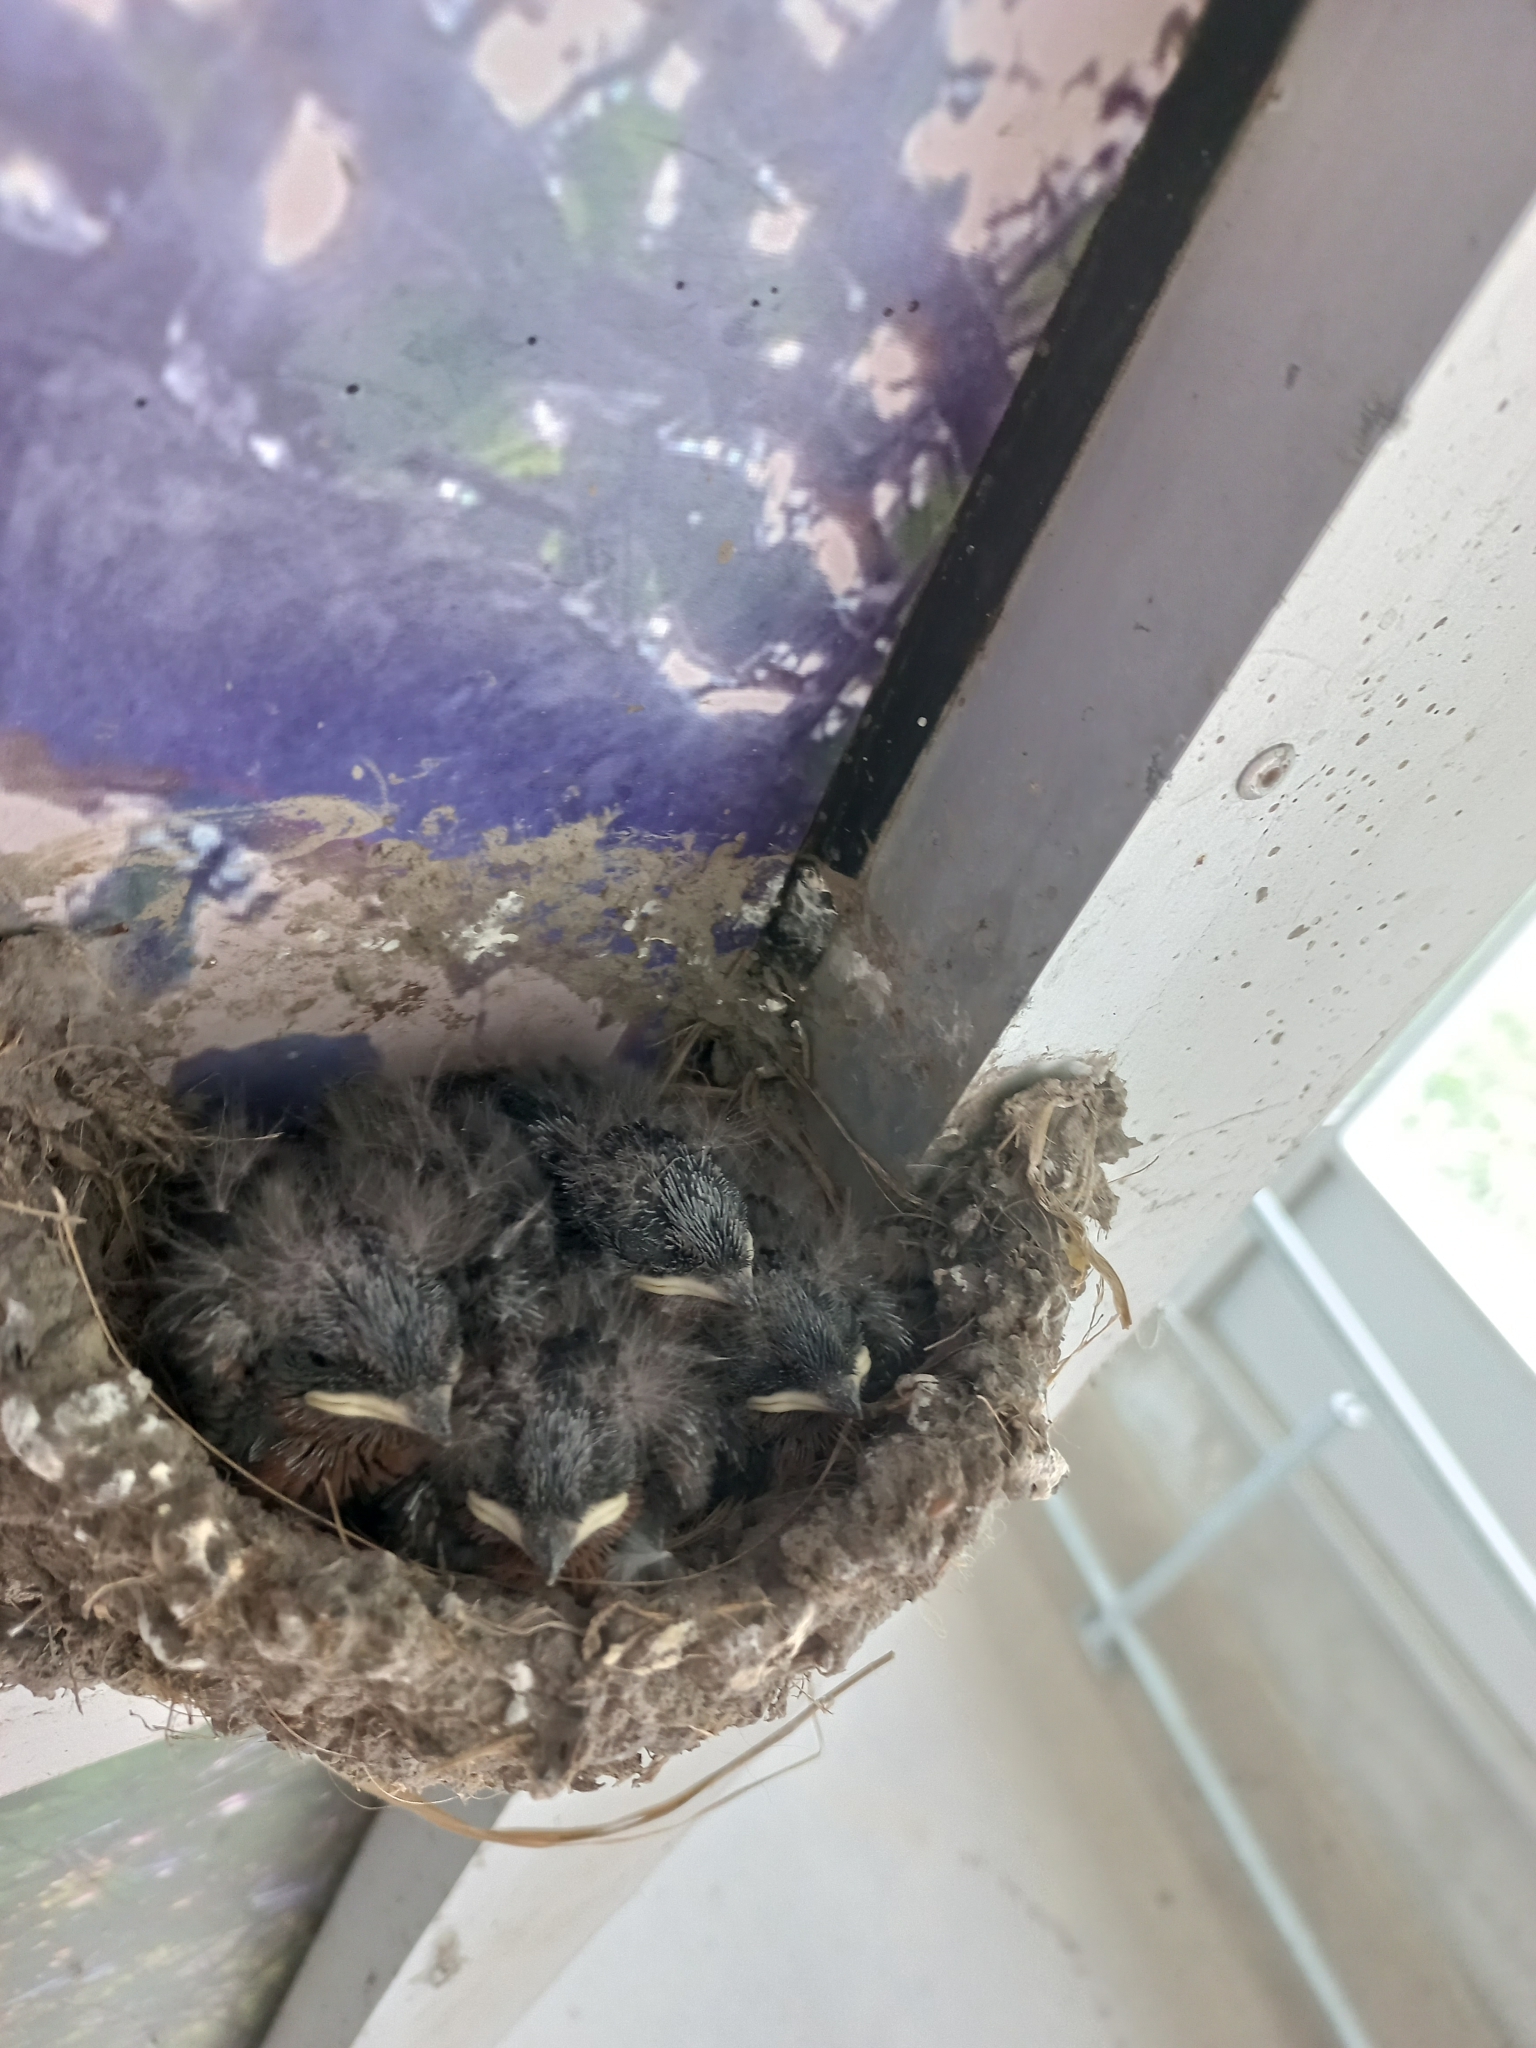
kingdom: Animalia
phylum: Chordata
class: Aves
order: Passeriformes
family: Hirundinidae
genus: Hirundo
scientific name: Hirundo neoxena
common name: Welcome swallow
